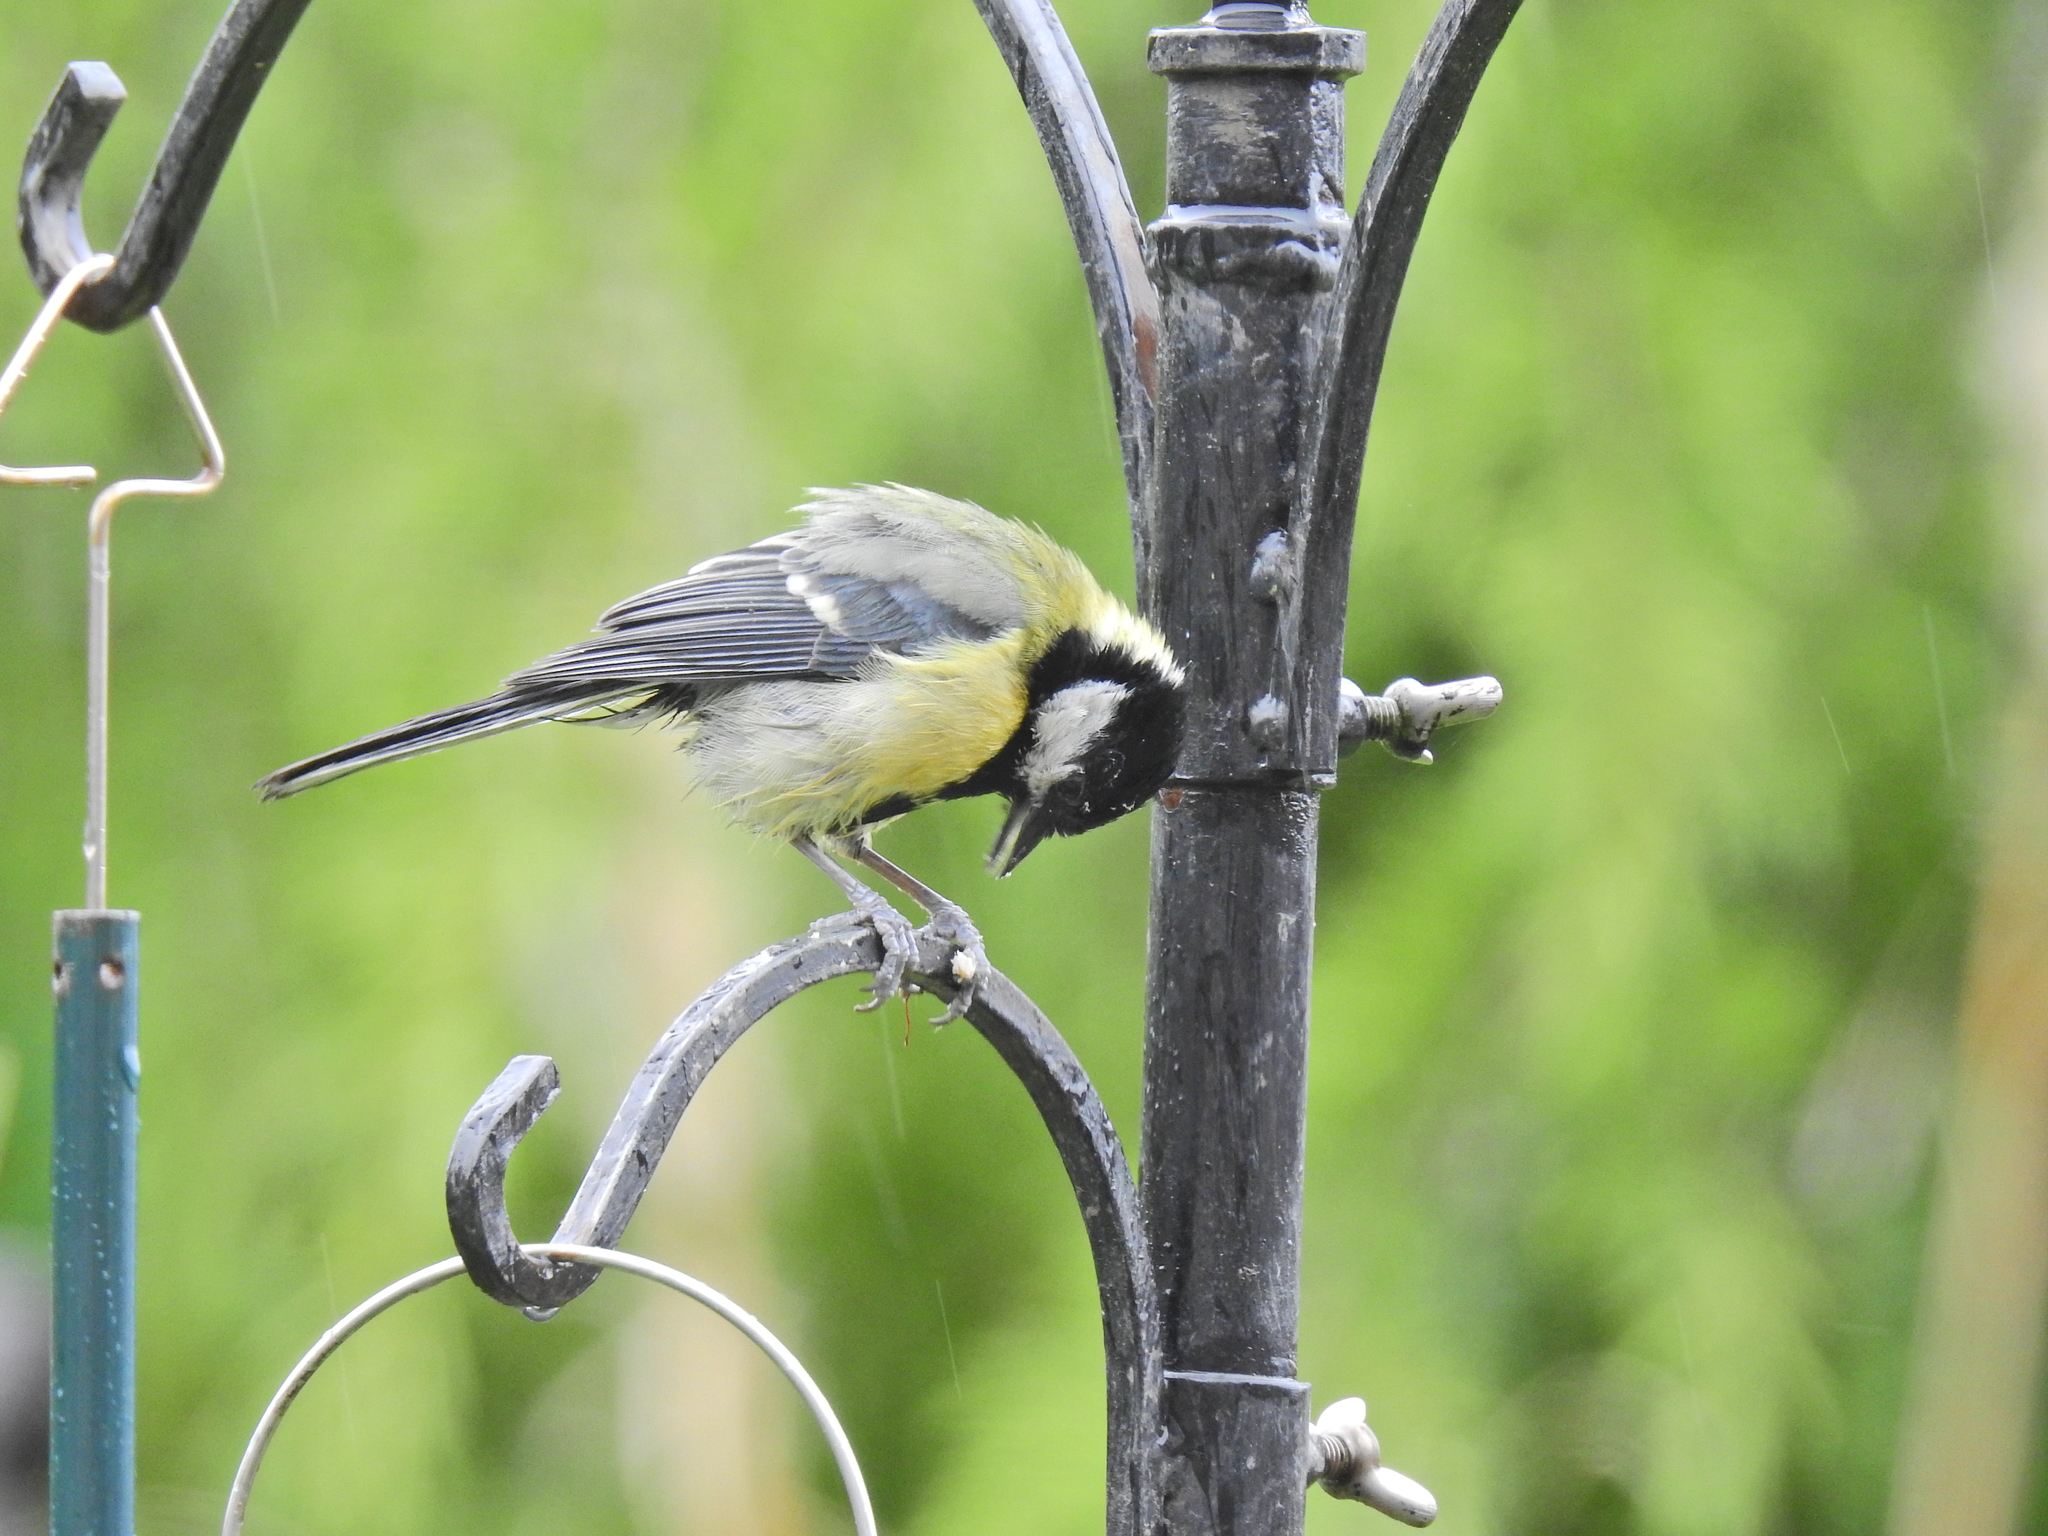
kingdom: Animalia
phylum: Chordata
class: Aves
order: Passeriformes
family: Paridae
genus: Parus
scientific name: Parus major
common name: Great tit
